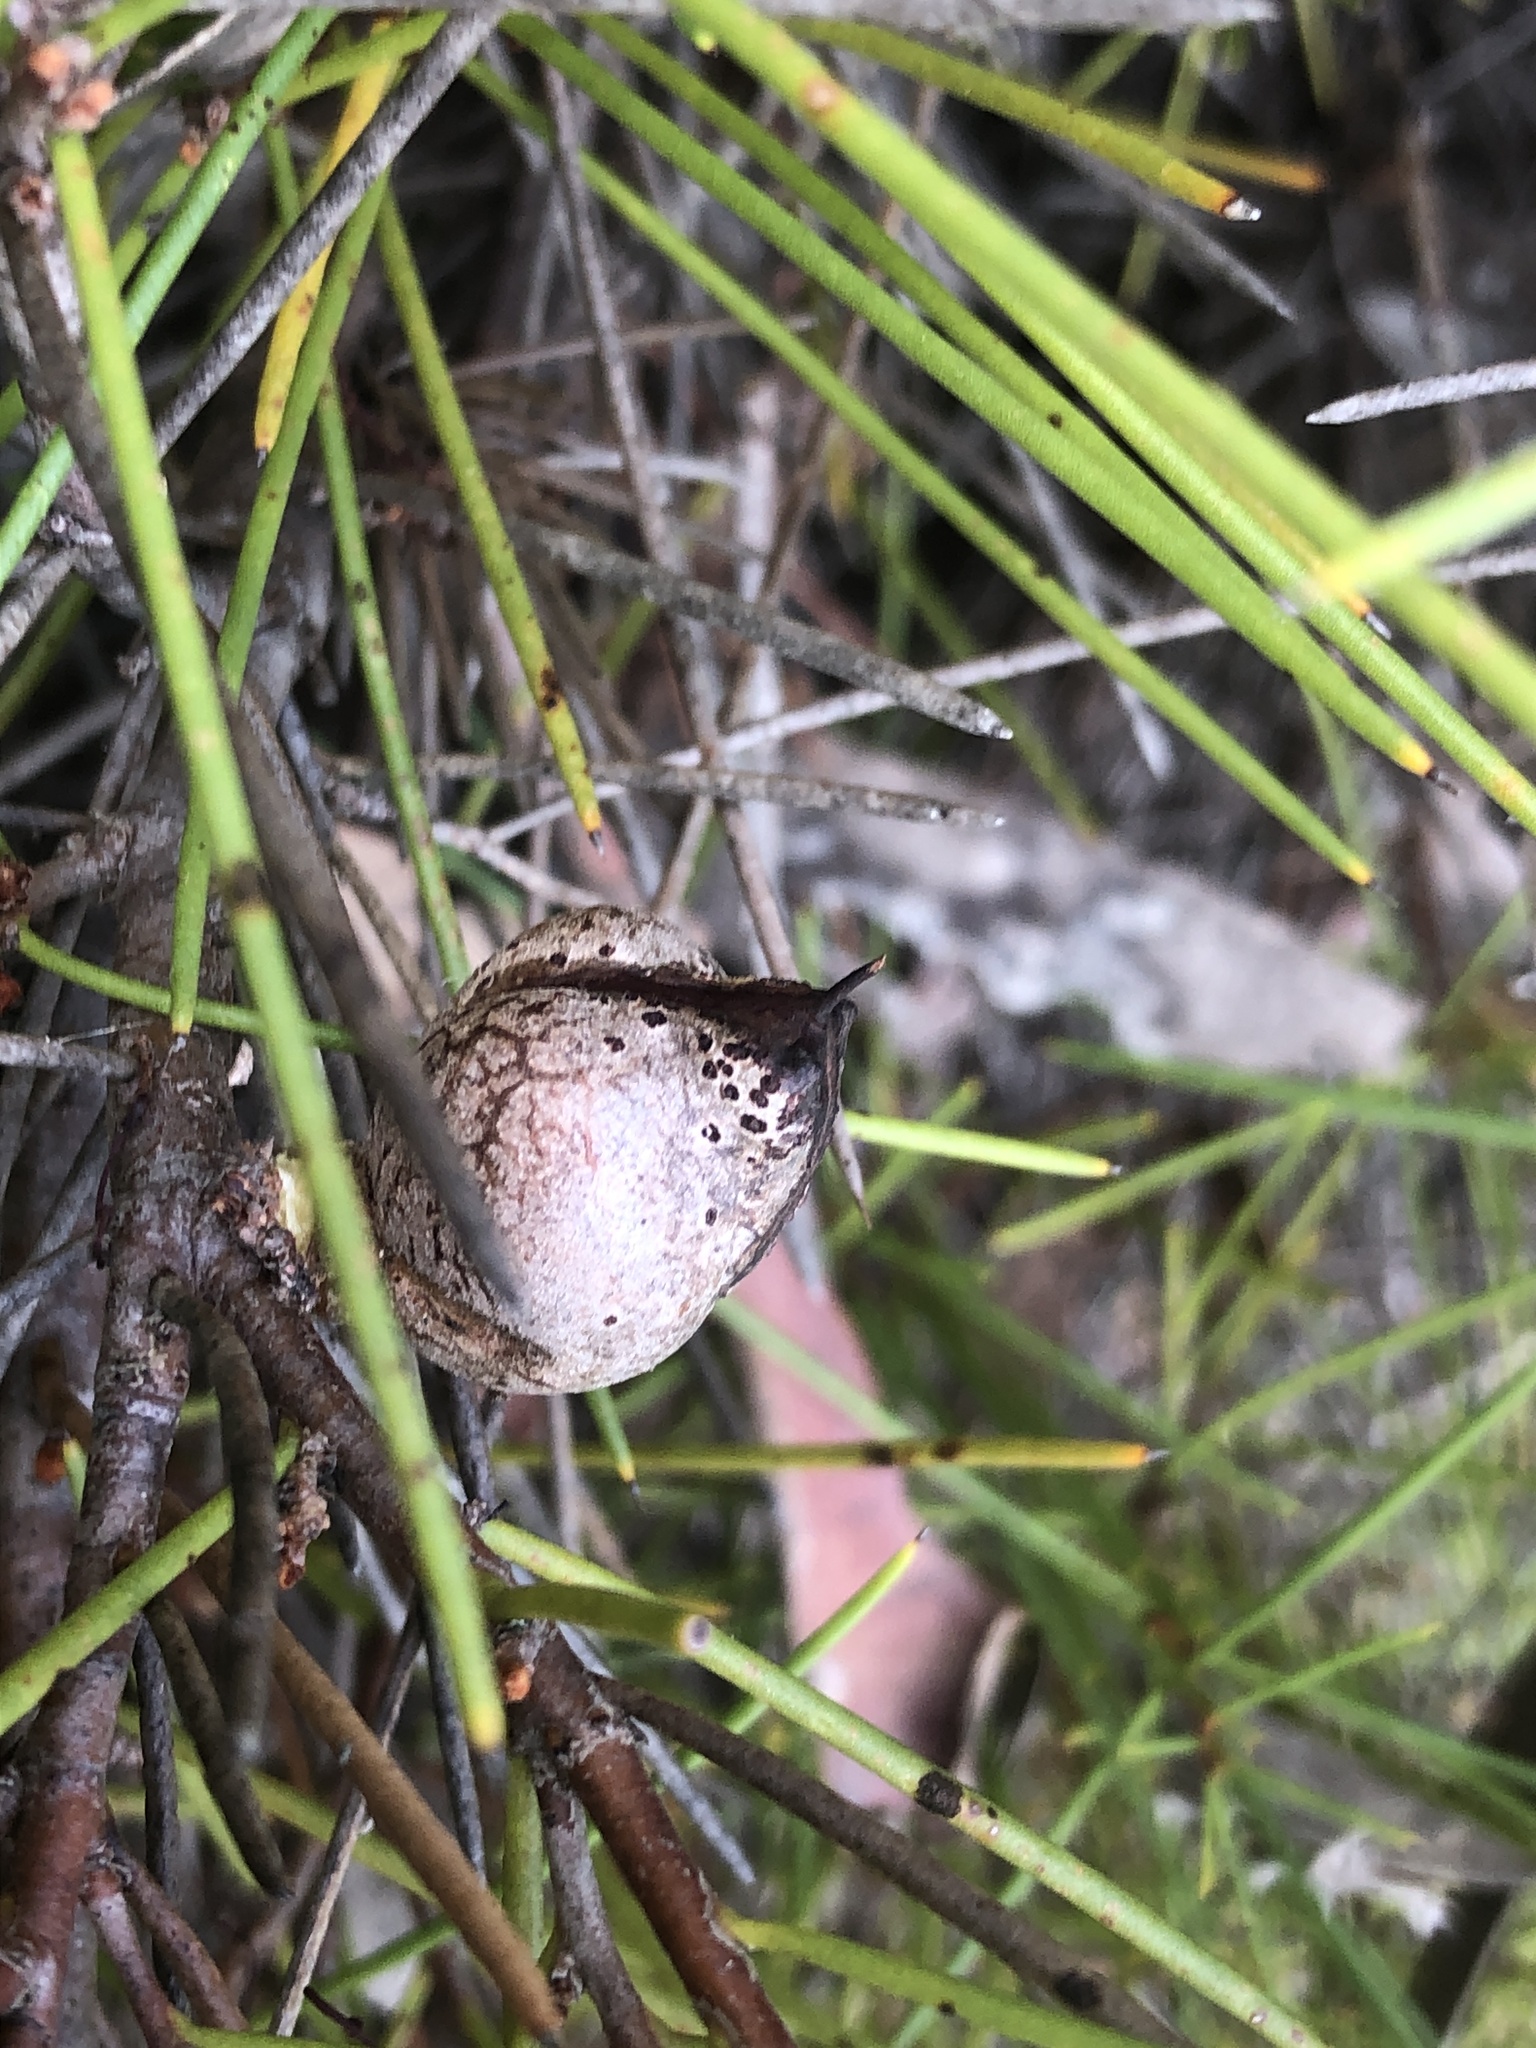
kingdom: Plantae
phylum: Tracheophyta
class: Magnoliopsida
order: Proteales
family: Proteaceae
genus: Hakea
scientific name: Hakea vittata
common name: Striped needlewood
